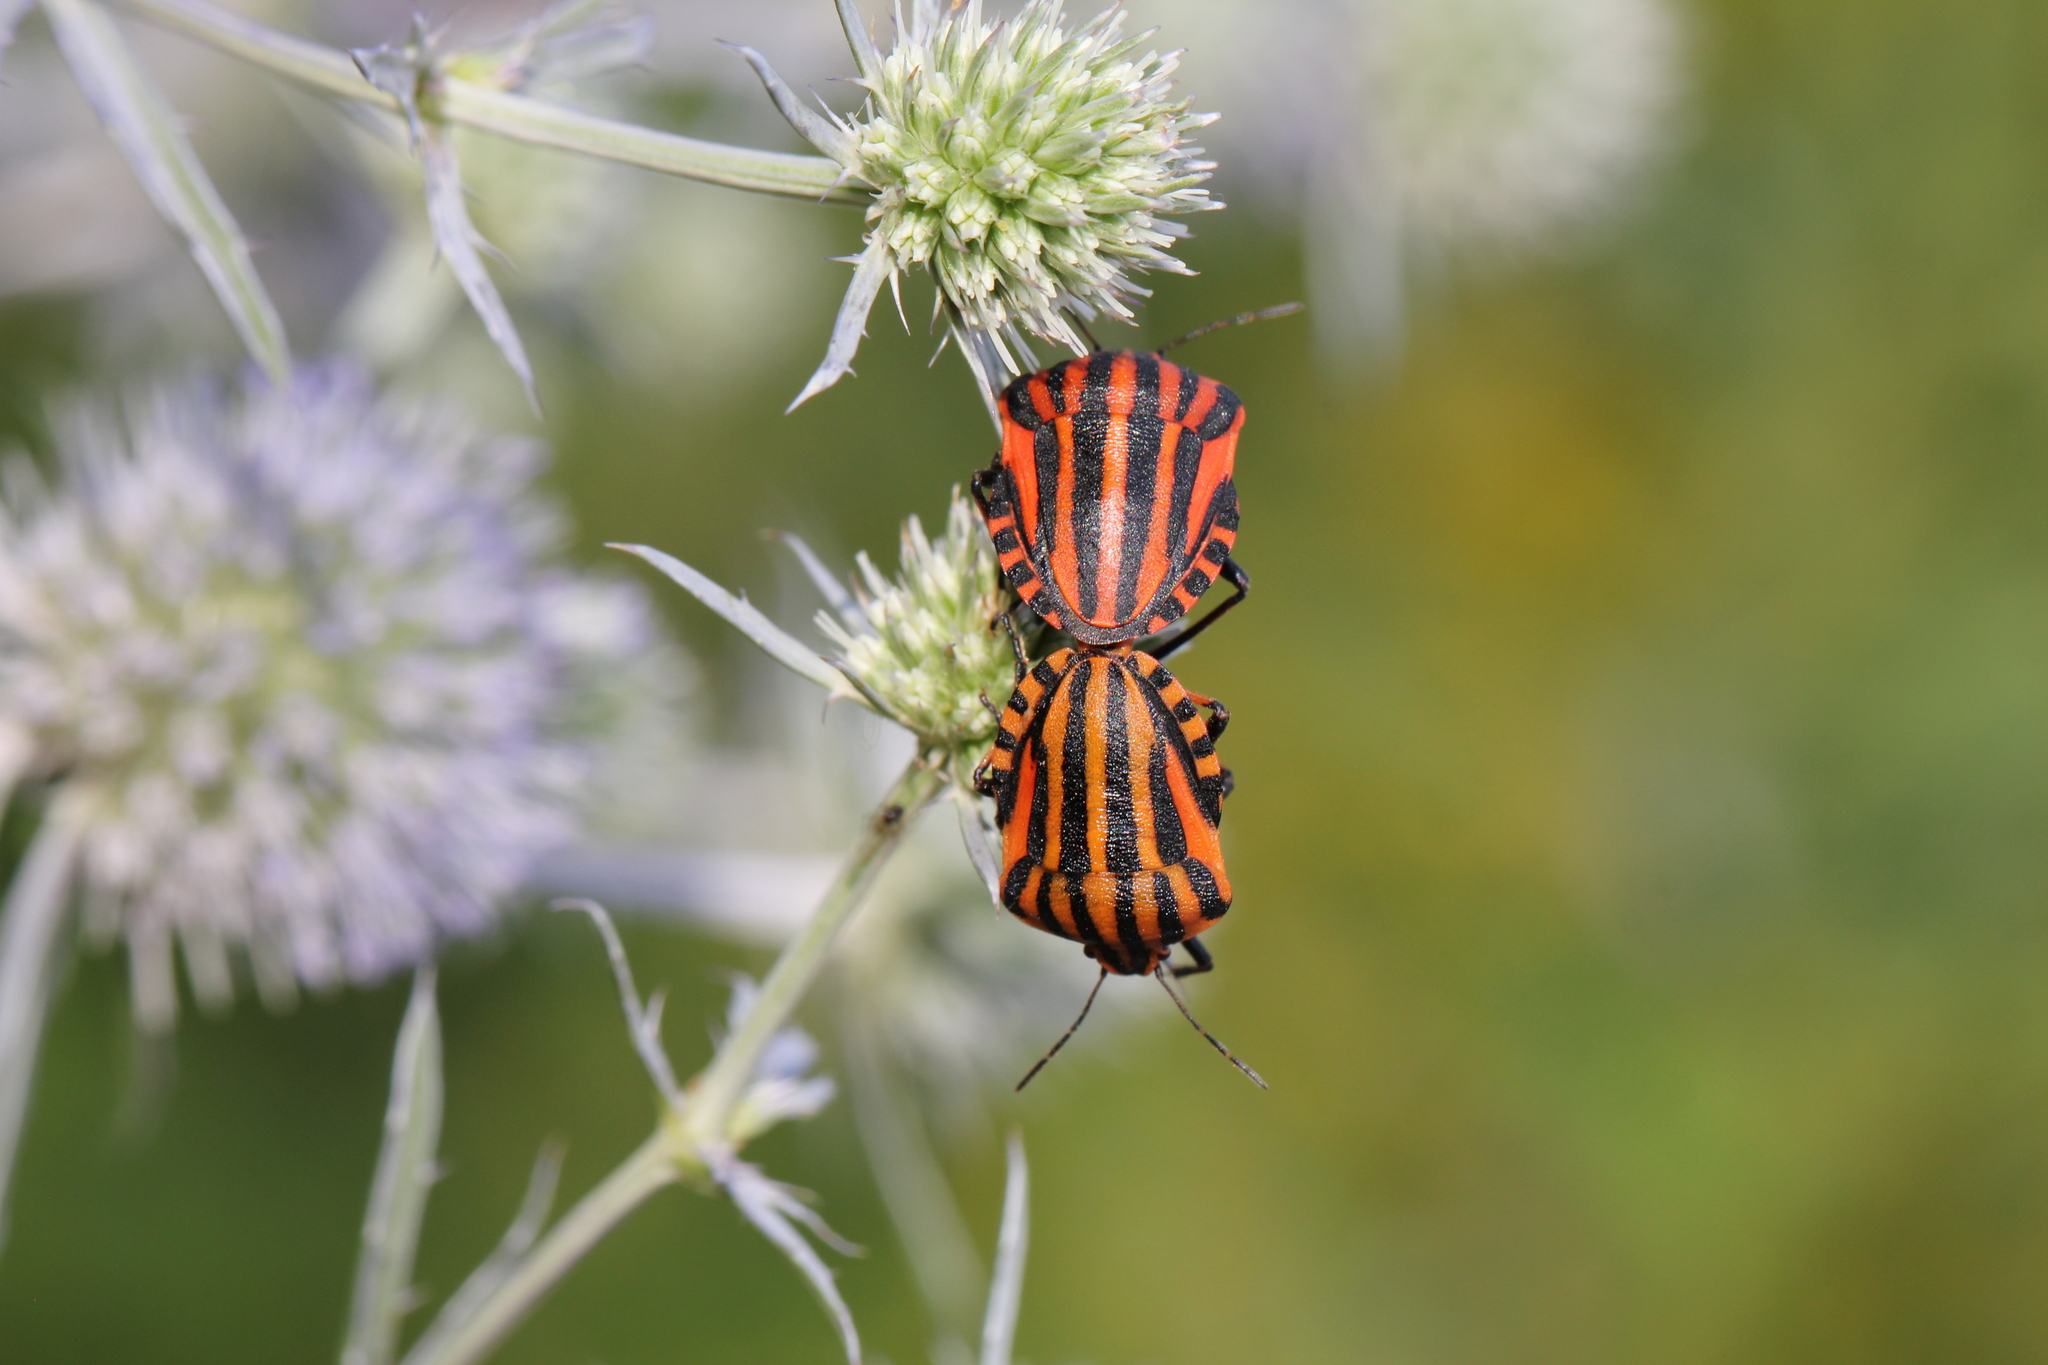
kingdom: Animalia
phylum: Arthropoda
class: Insecta
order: Hemiptera
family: Pentatomidae
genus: Graphosoma
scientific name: Graphosoma italicum
